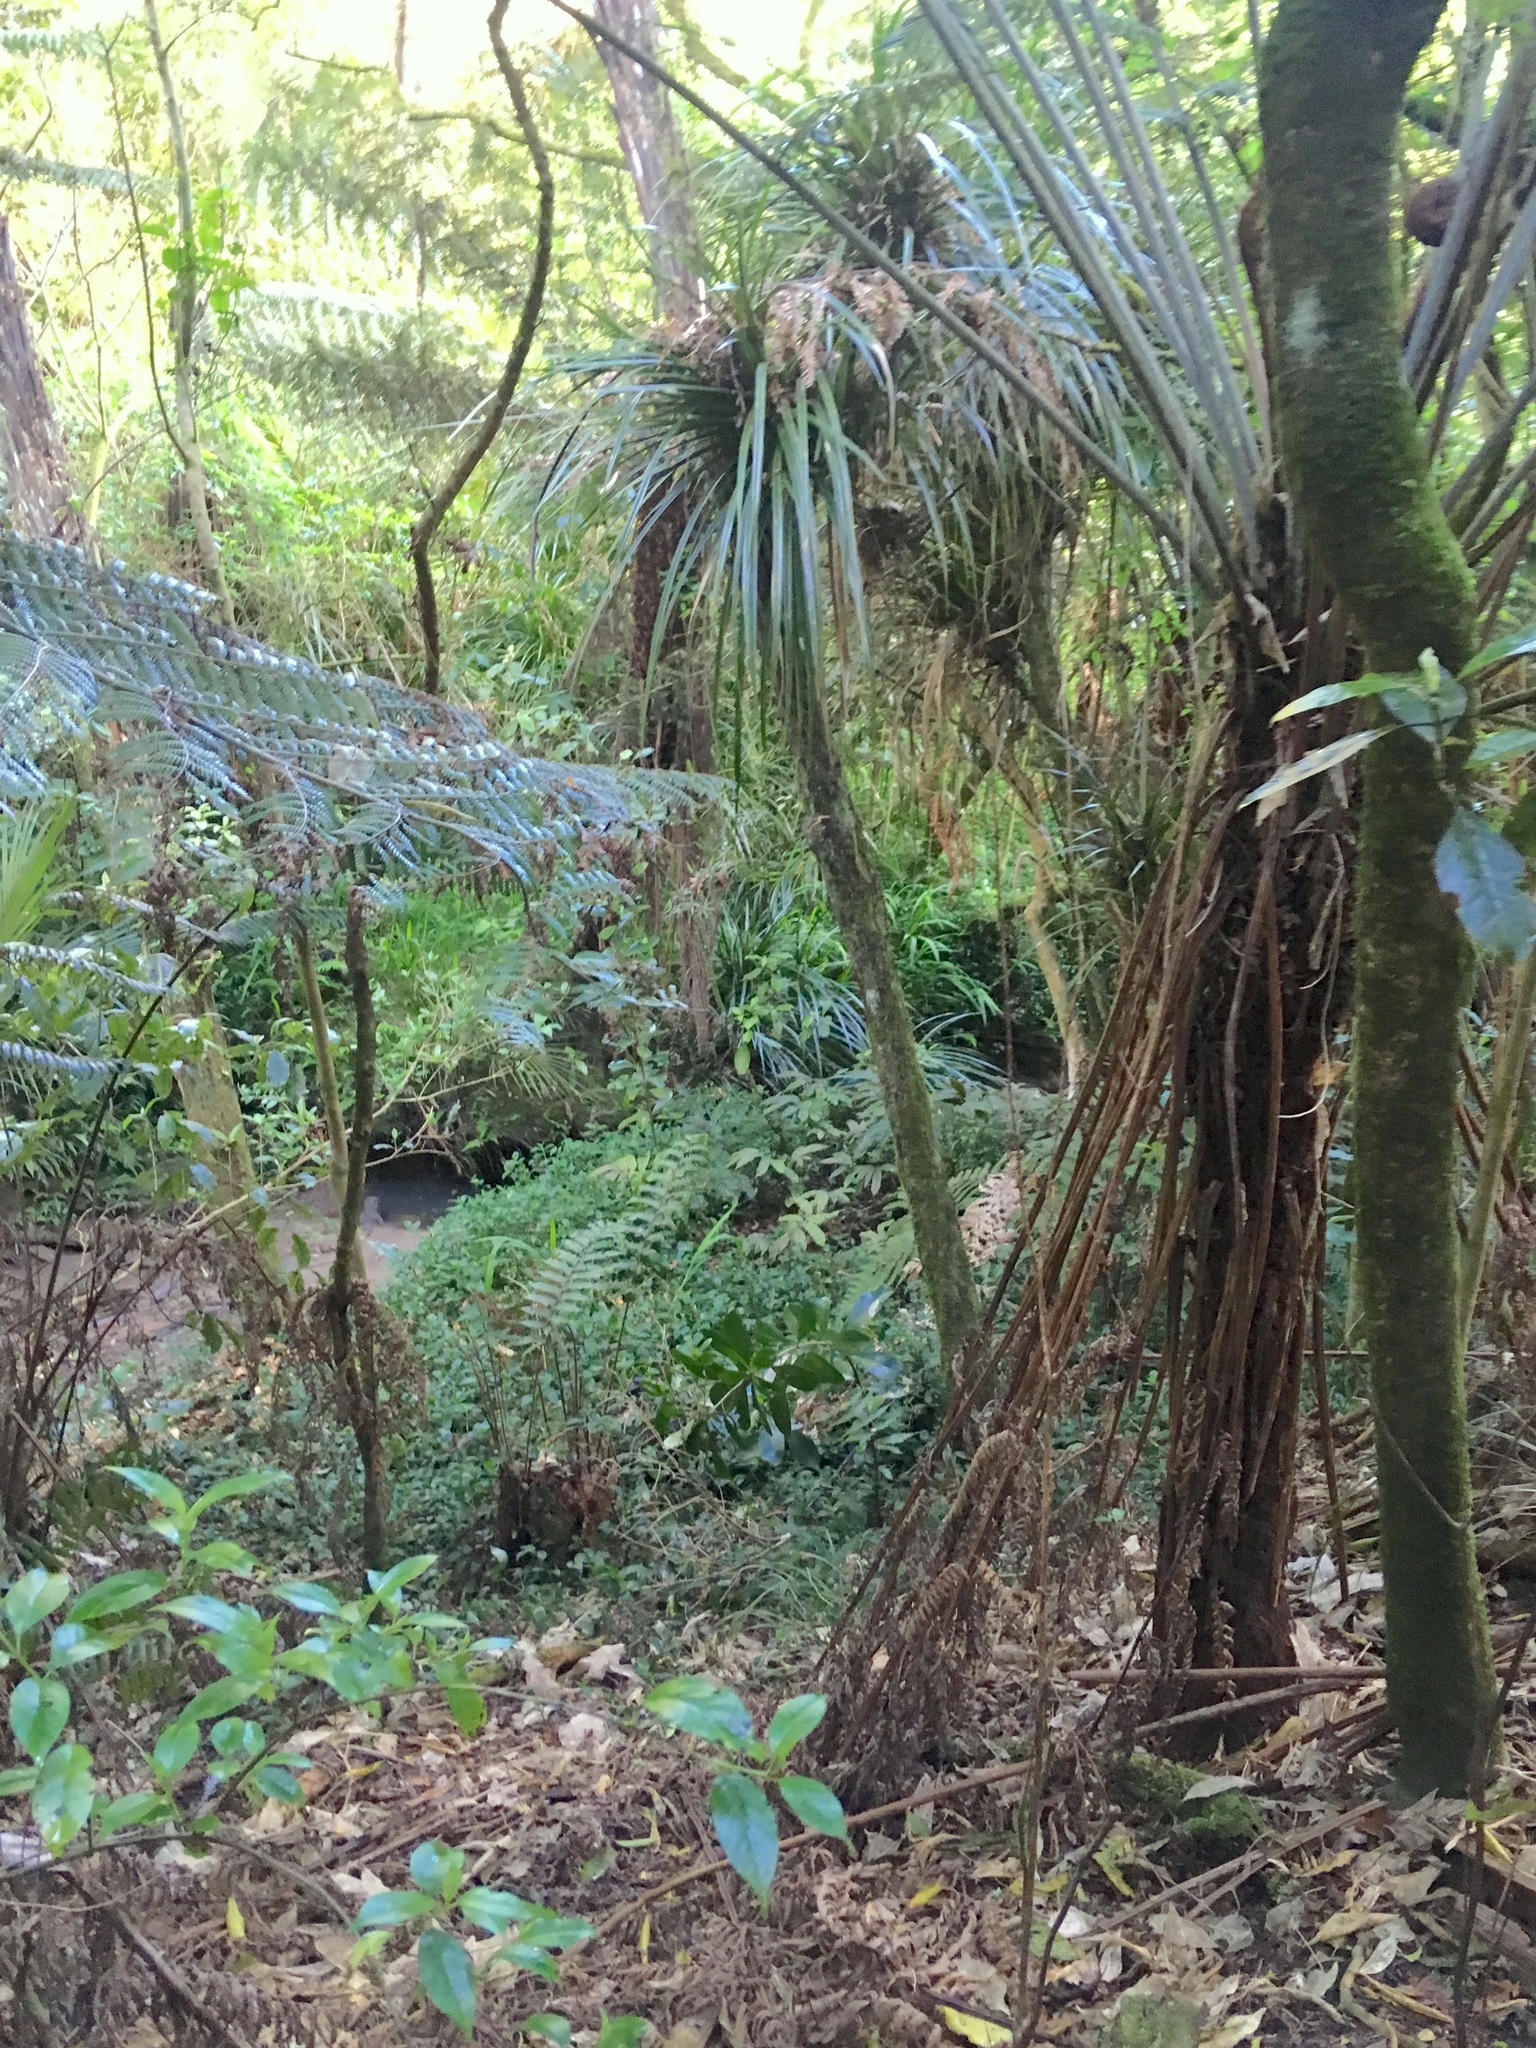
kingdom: Plantae
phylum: Tracheophyta
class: Liliopsida
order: Commelinales
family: Commelinaceae
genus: Tradescantia
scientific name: Tradescantia fluminensis
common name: Wandering-jew
